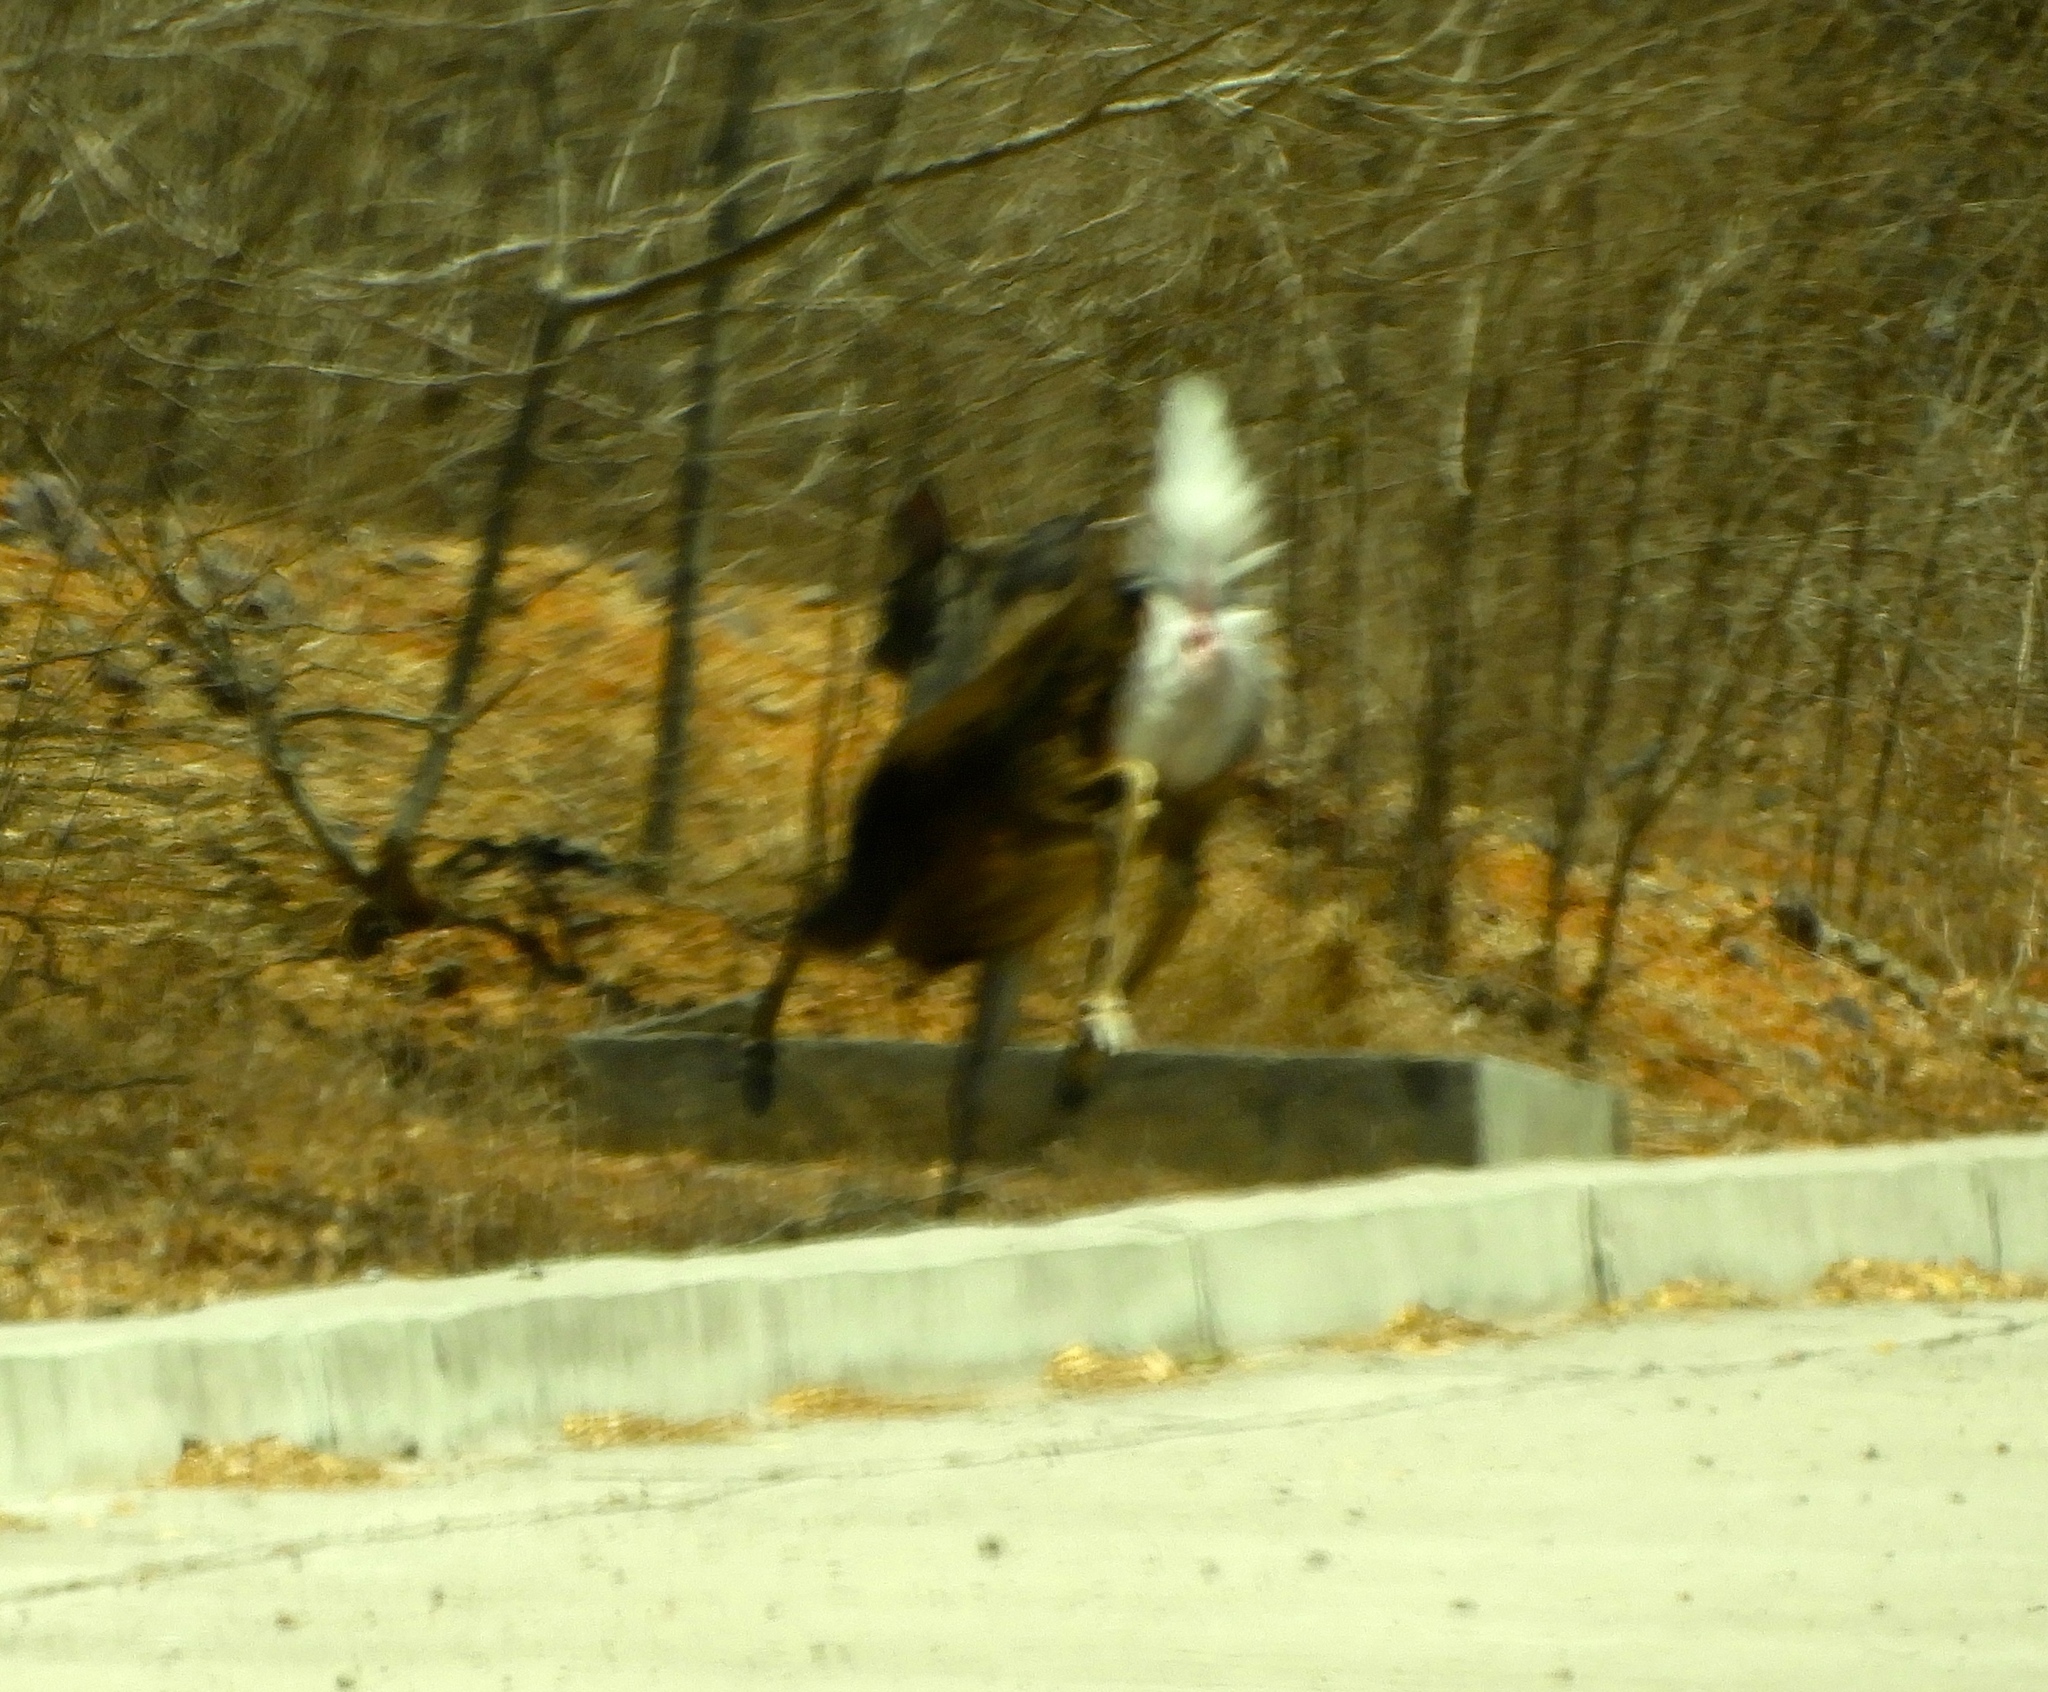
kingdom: Animalia
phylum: Chordata
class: Mammalia
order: Artiodactyla
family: Cervidae
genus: Odocoileus
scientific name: Odocoileus virginianus
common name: White-tailed deer
